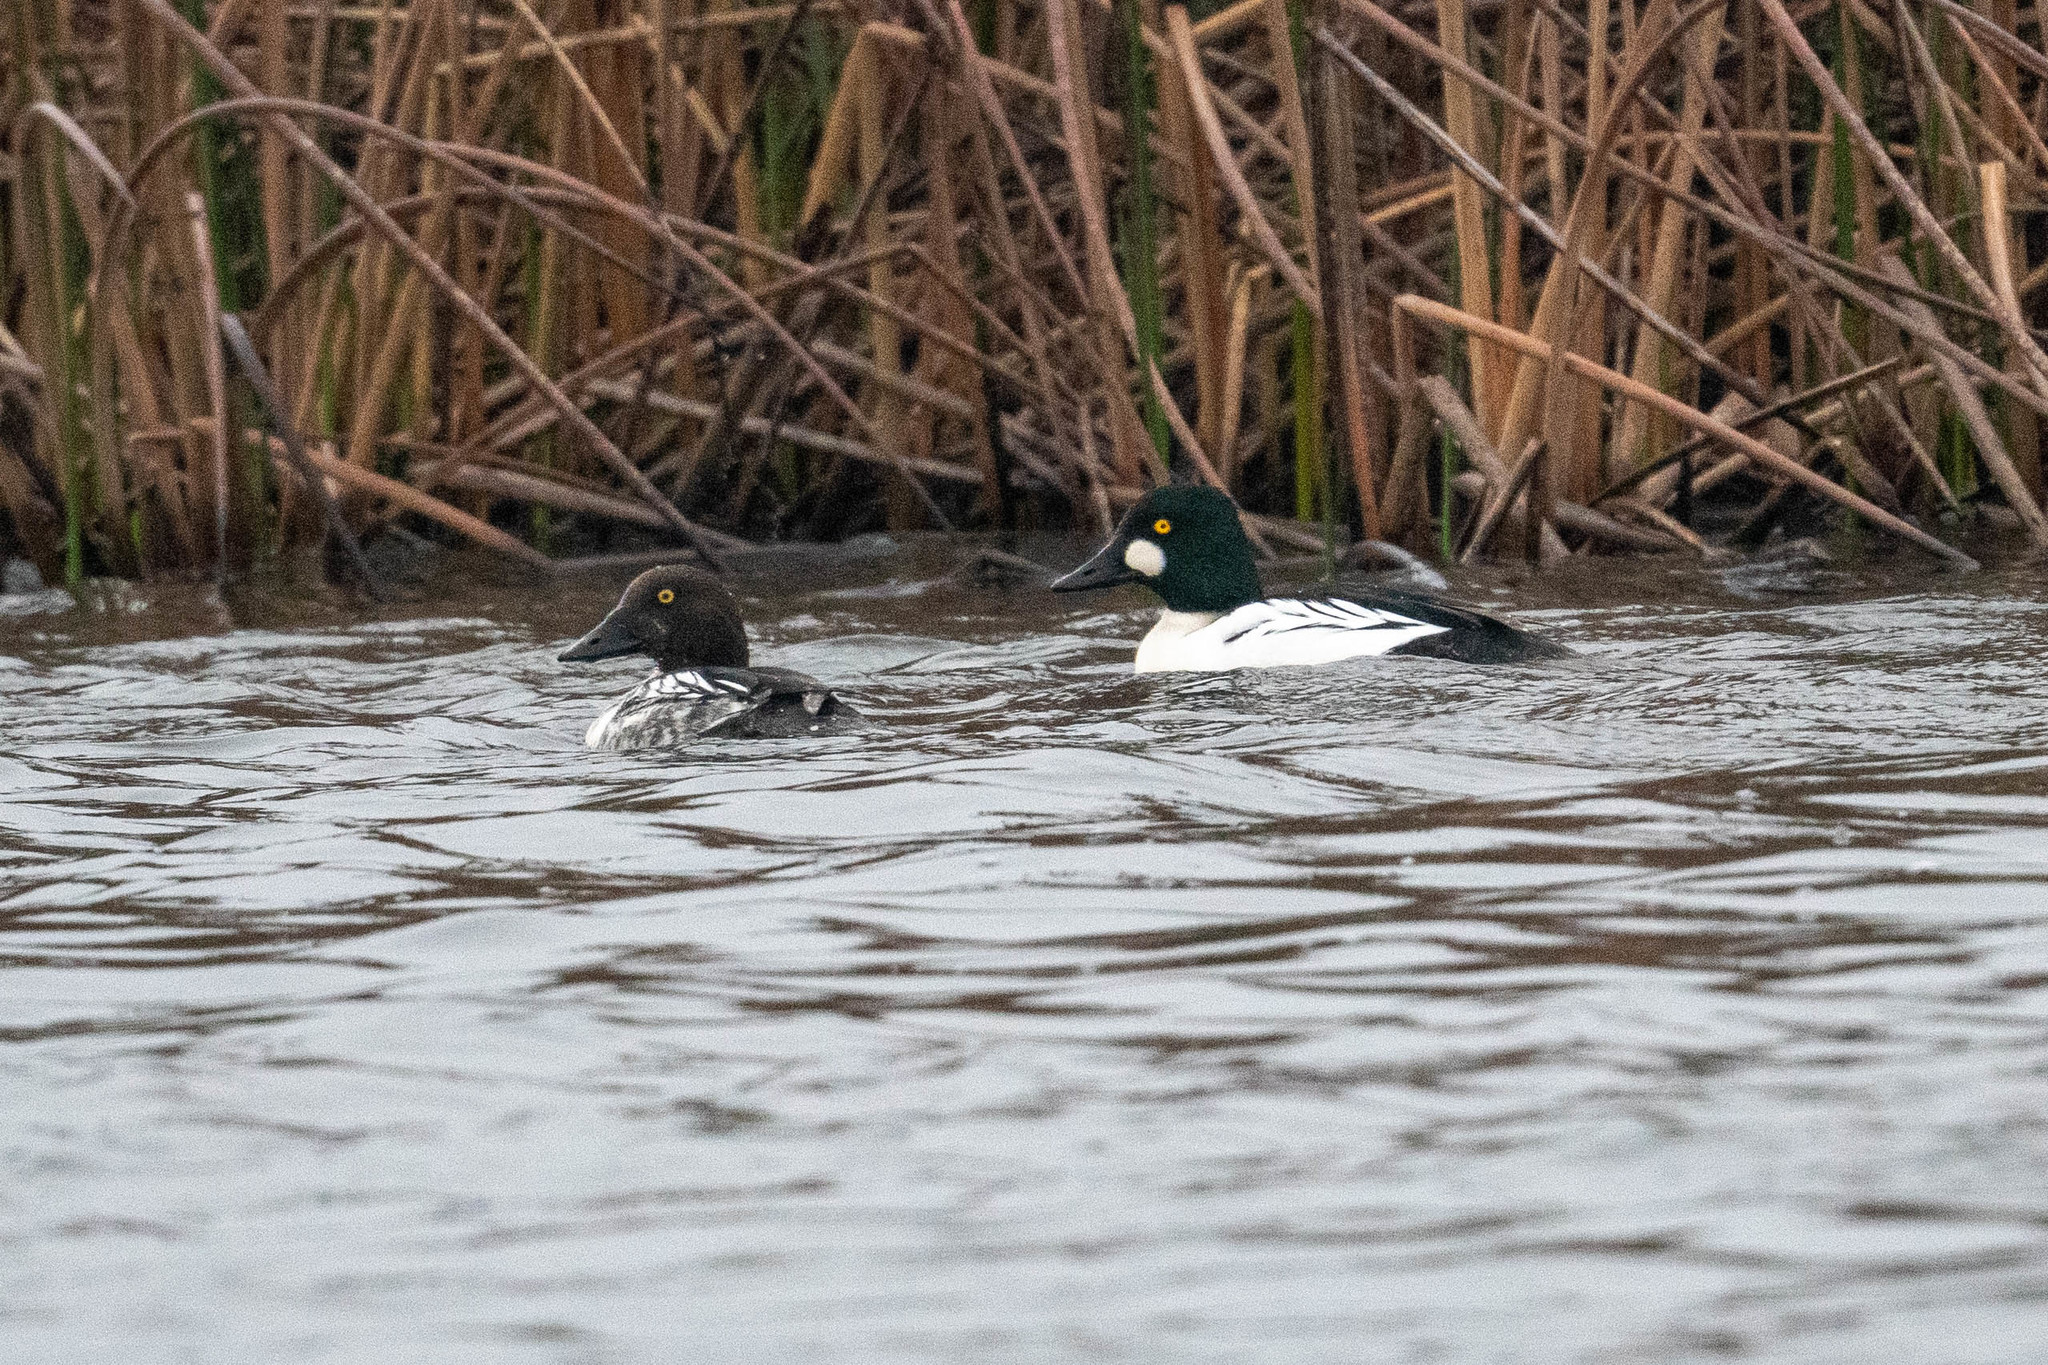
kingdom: Animalia
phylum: Chordata
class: Aves
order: Anseriformes
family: Anatidae
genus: Bucephala
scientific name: Bucephala clangula
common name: Common goldeneye
